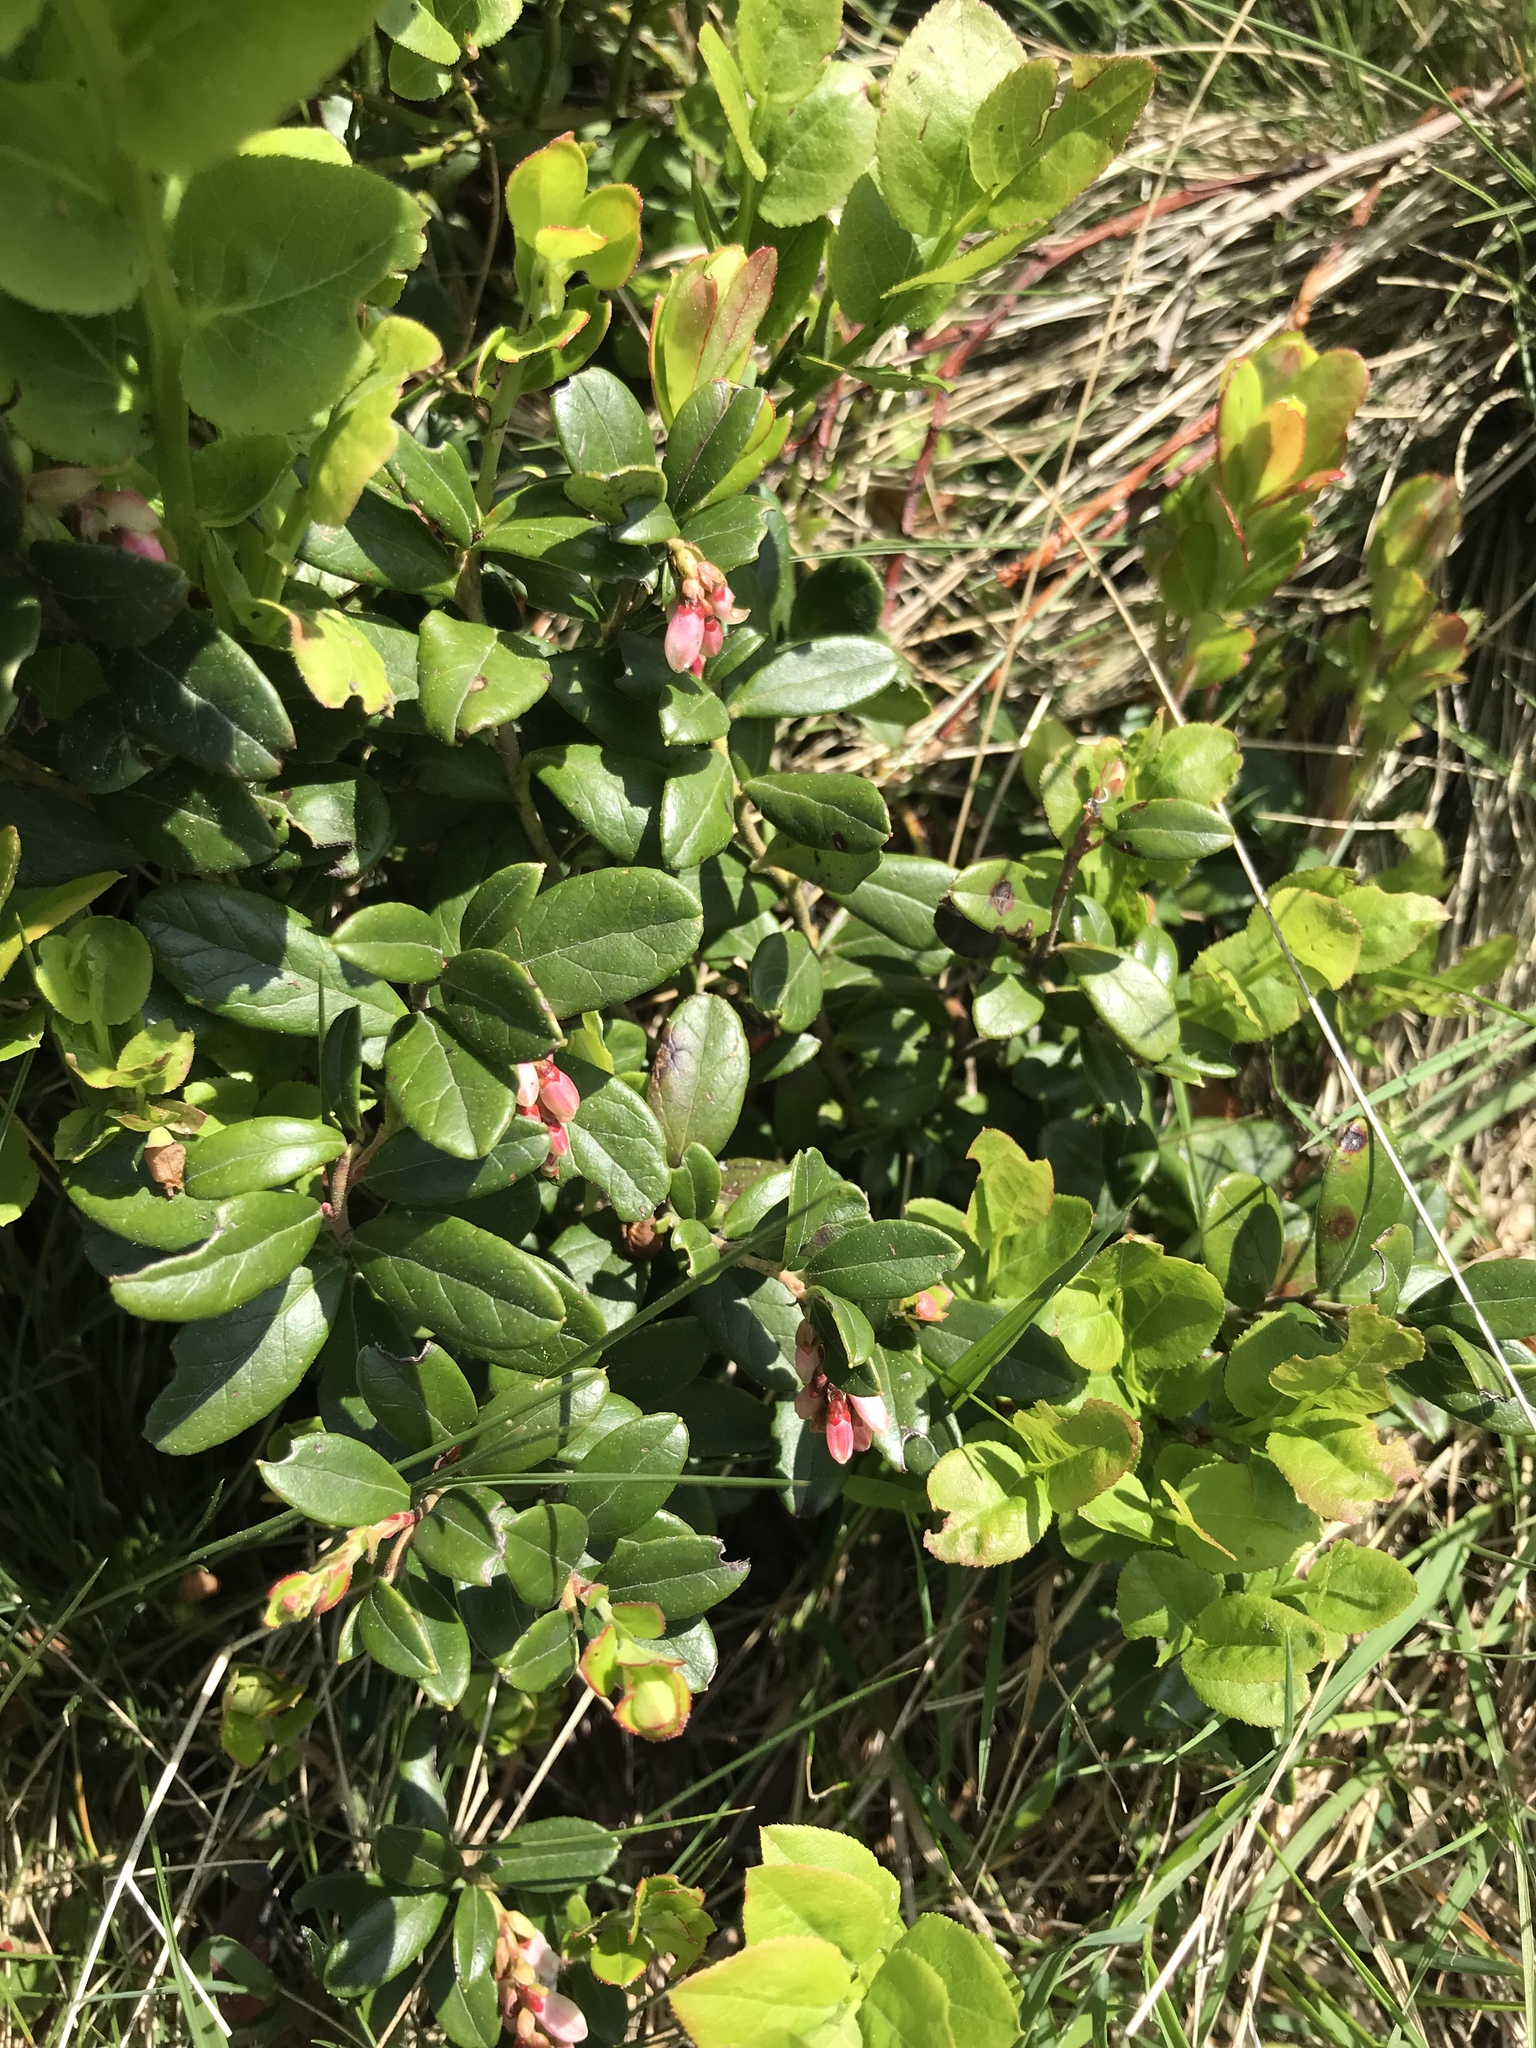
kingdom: Plantae
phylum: Tracheophyta
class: Magnoliopsida
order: Ericales
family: Ericaceae
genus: Vaccinium
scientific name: Vaccinium vitis-idaea
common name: Cowberry
